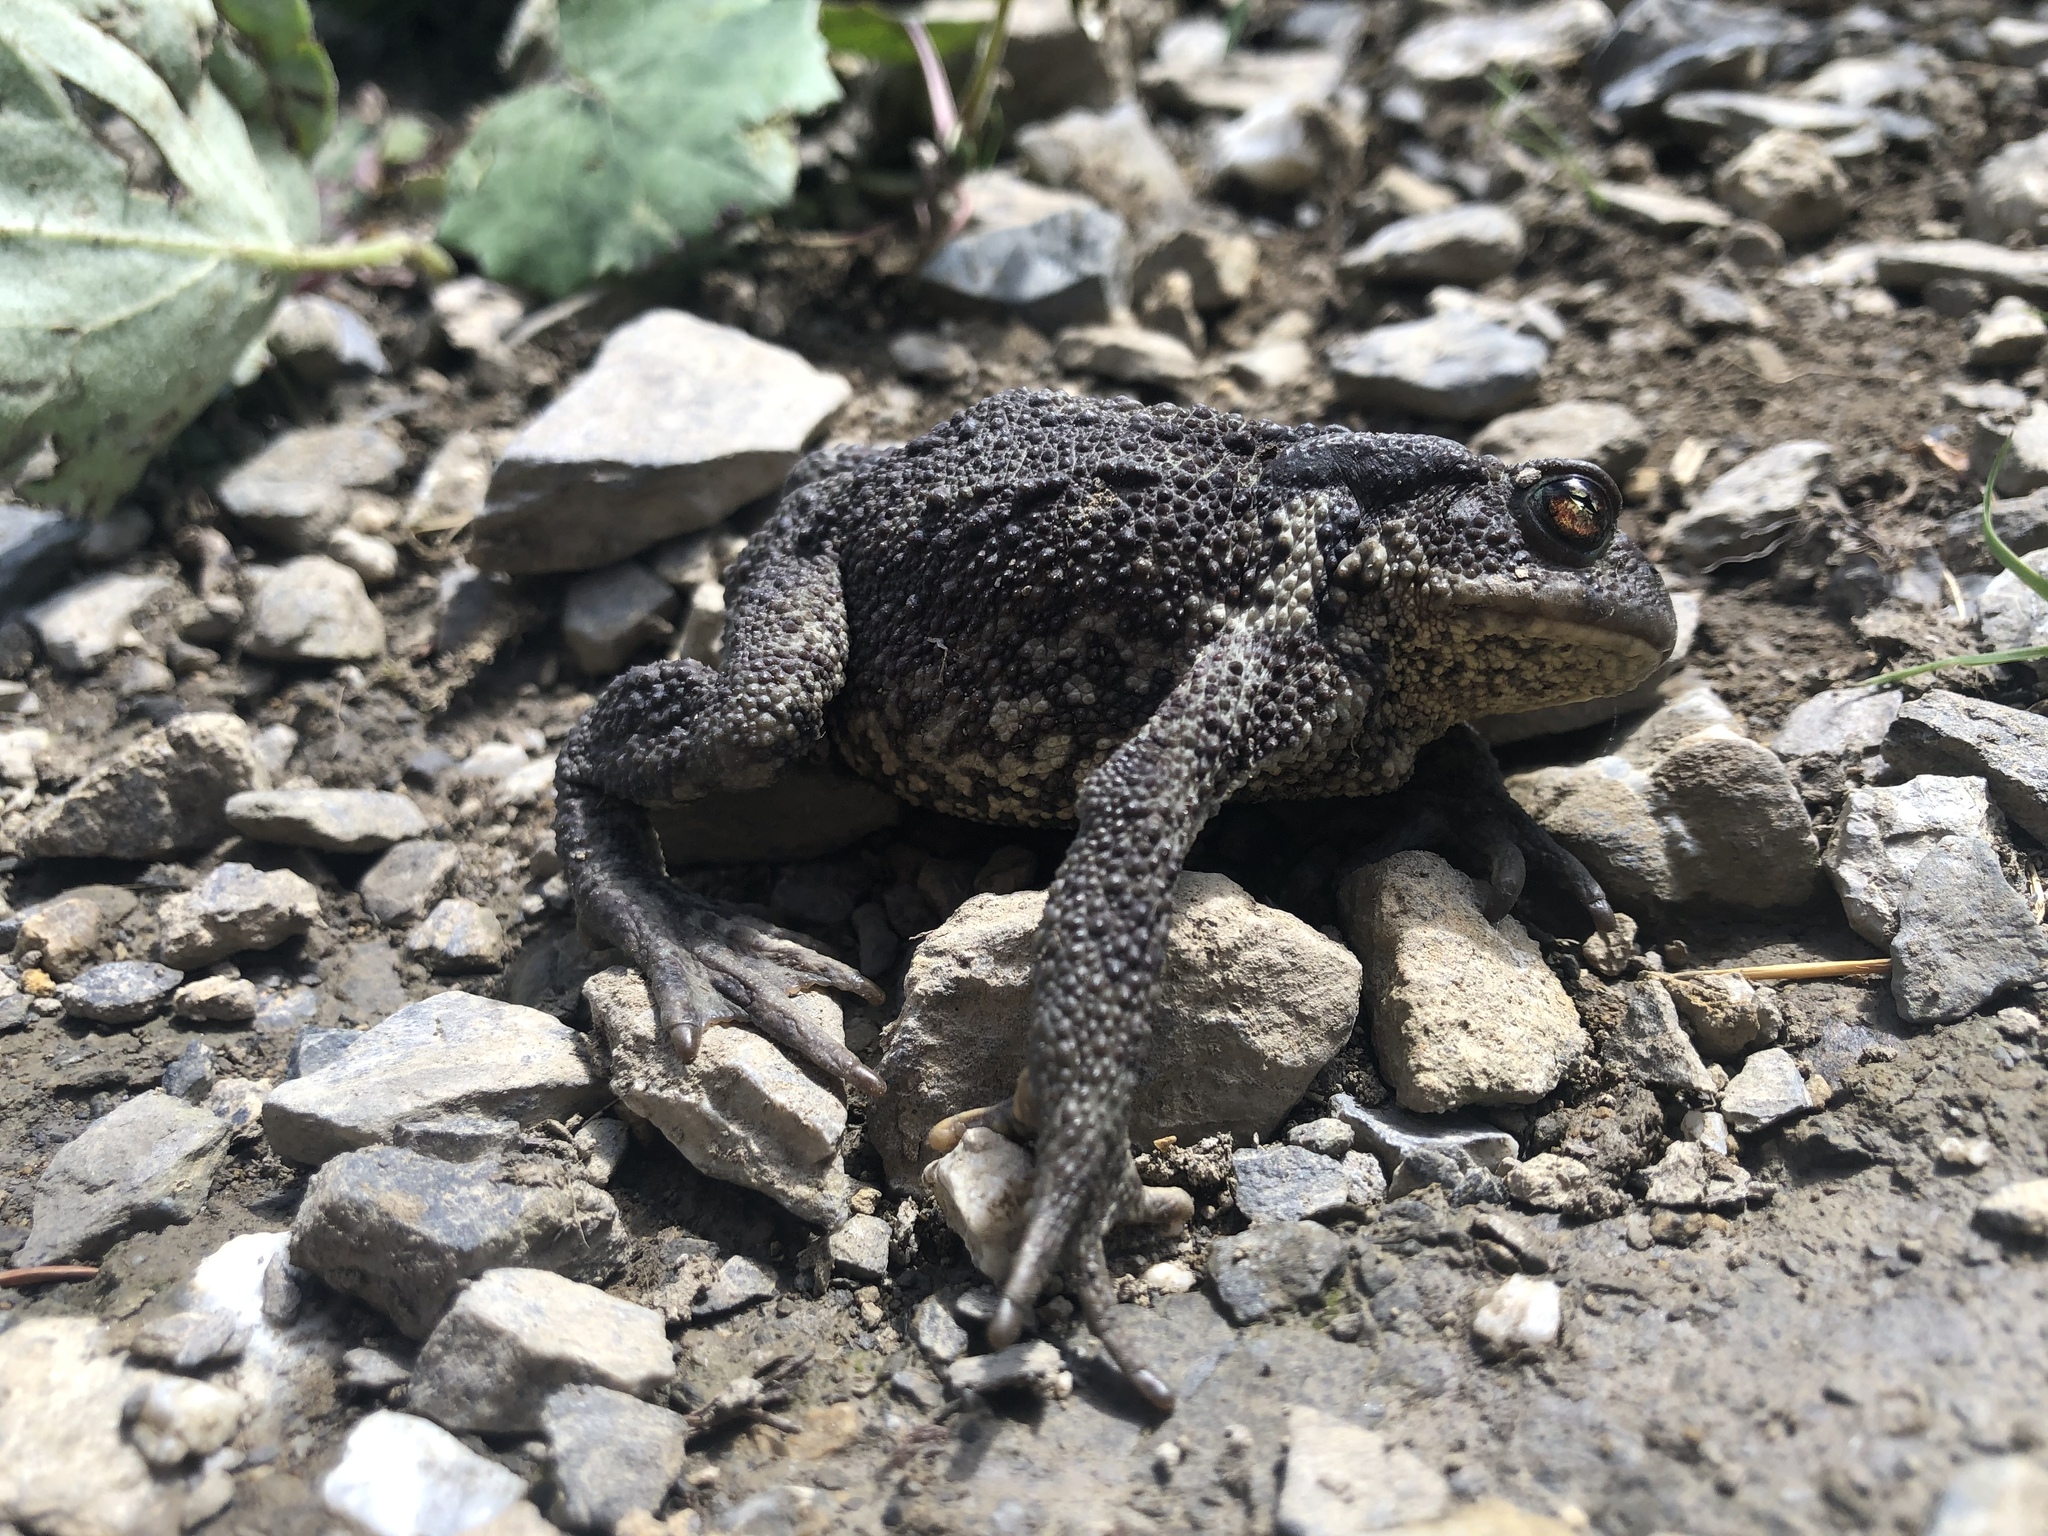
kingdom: Animalia
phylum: Chordata
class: Amphibia
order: Anura
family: Bufonidae
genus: Bufo
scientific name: Bufo bufo
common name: Common toad
